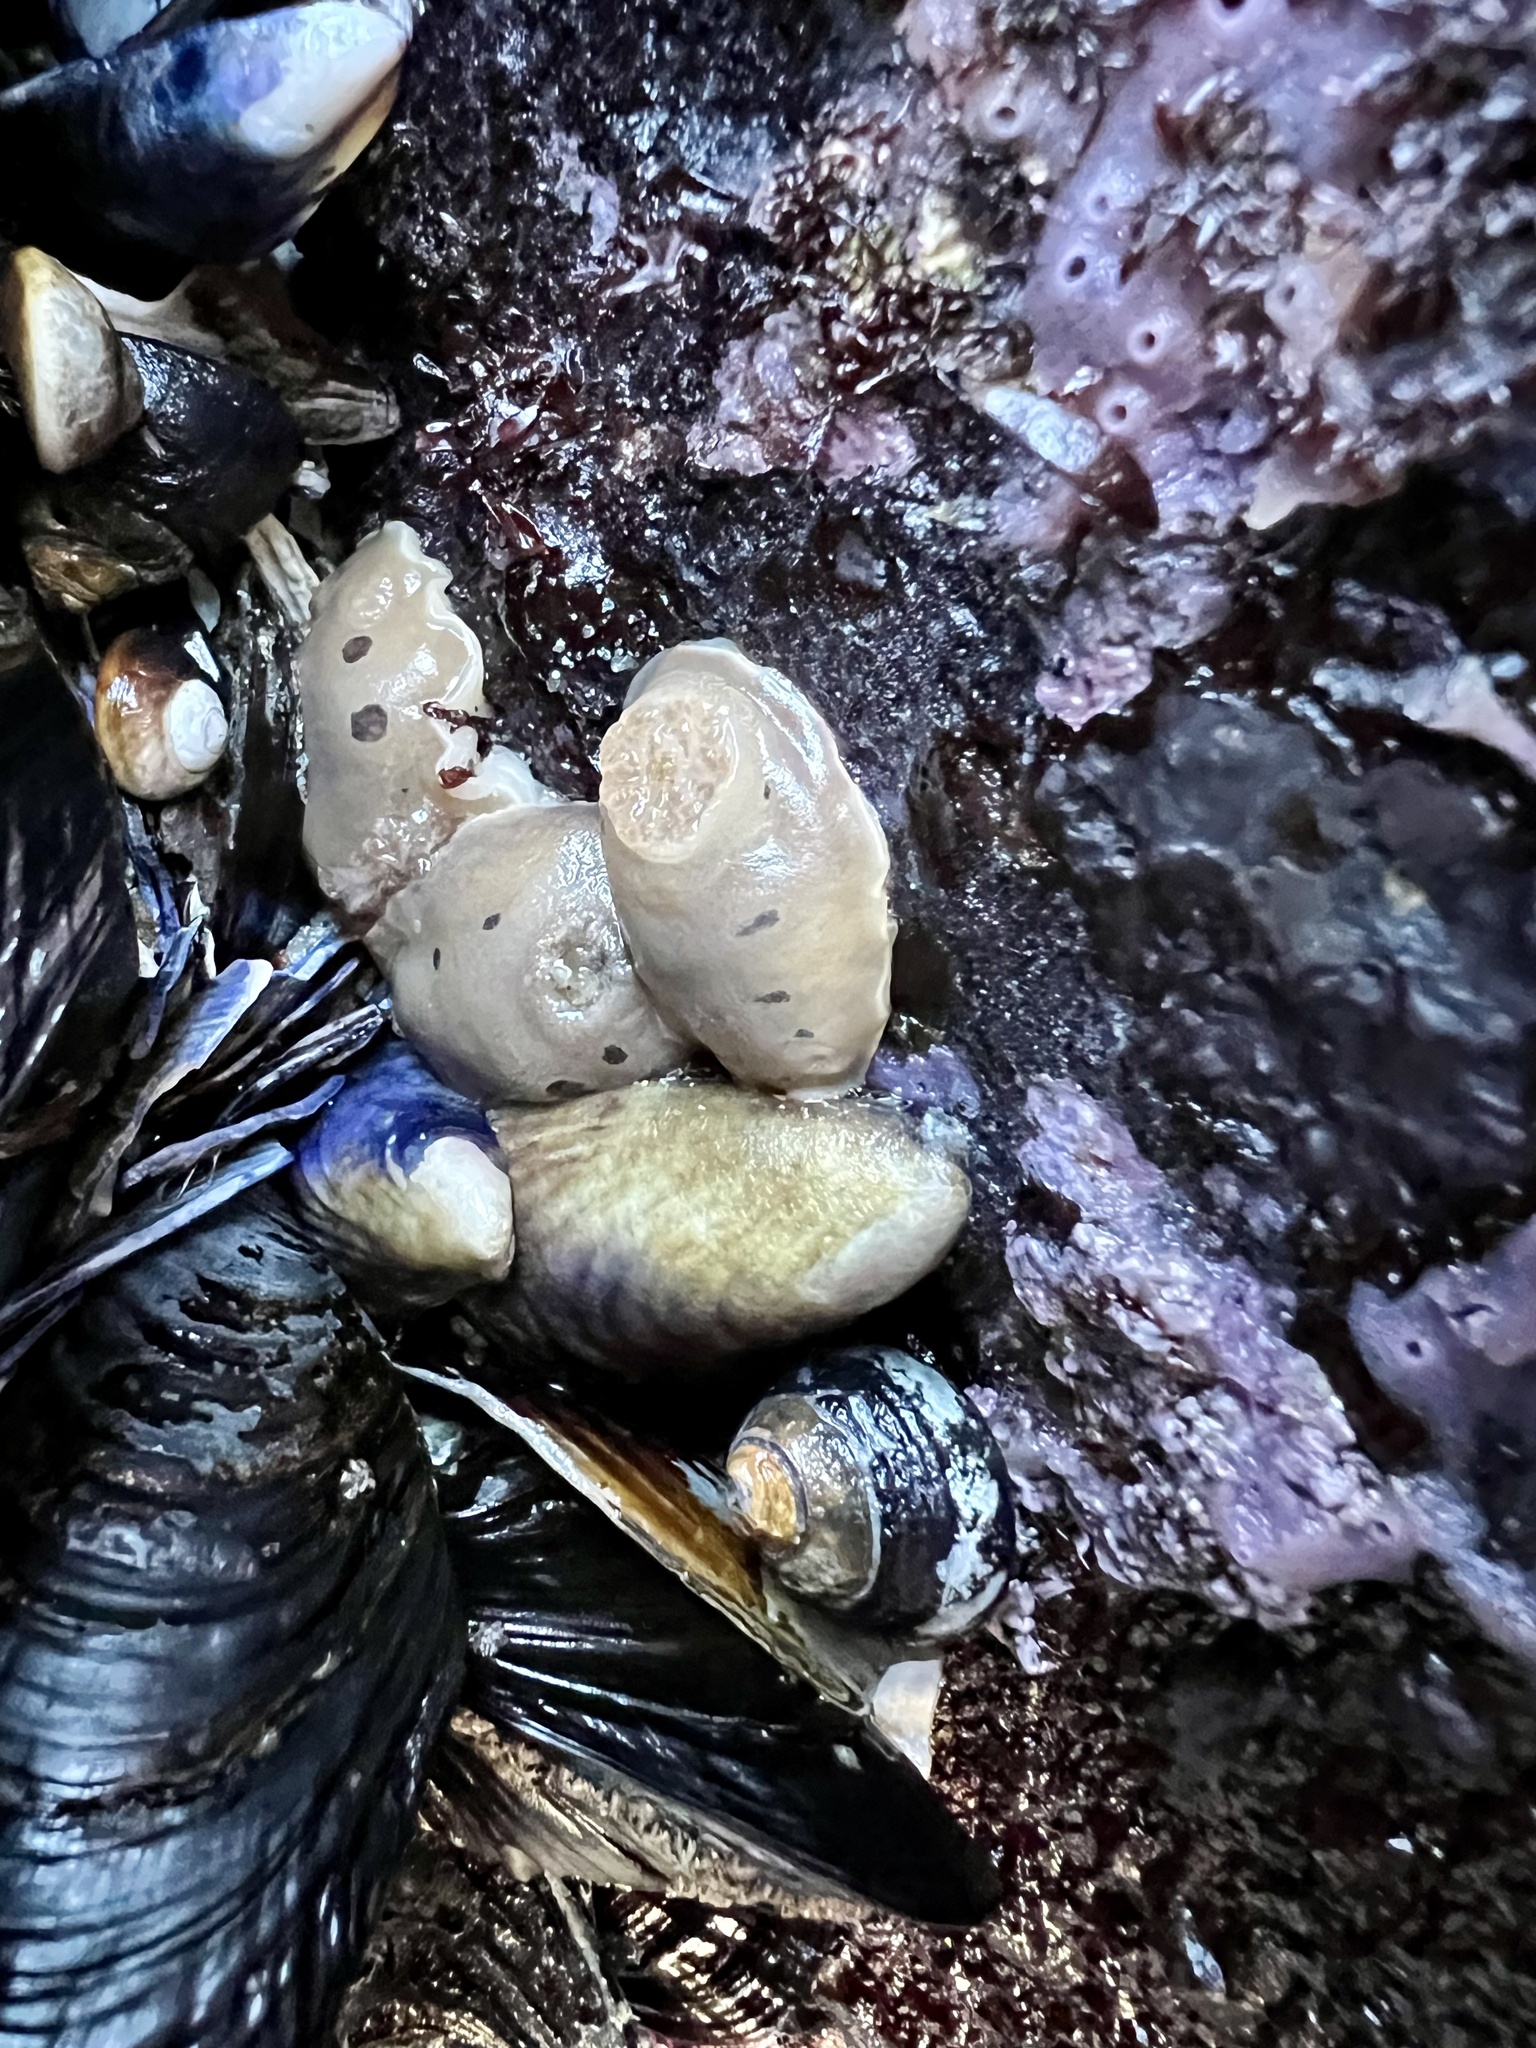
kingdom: Animalia
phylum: Mollusca
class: Gastropoda
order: Nudibranchia
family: Discodorididae
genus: Diaulula
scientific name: Diaulula sandiegensis
